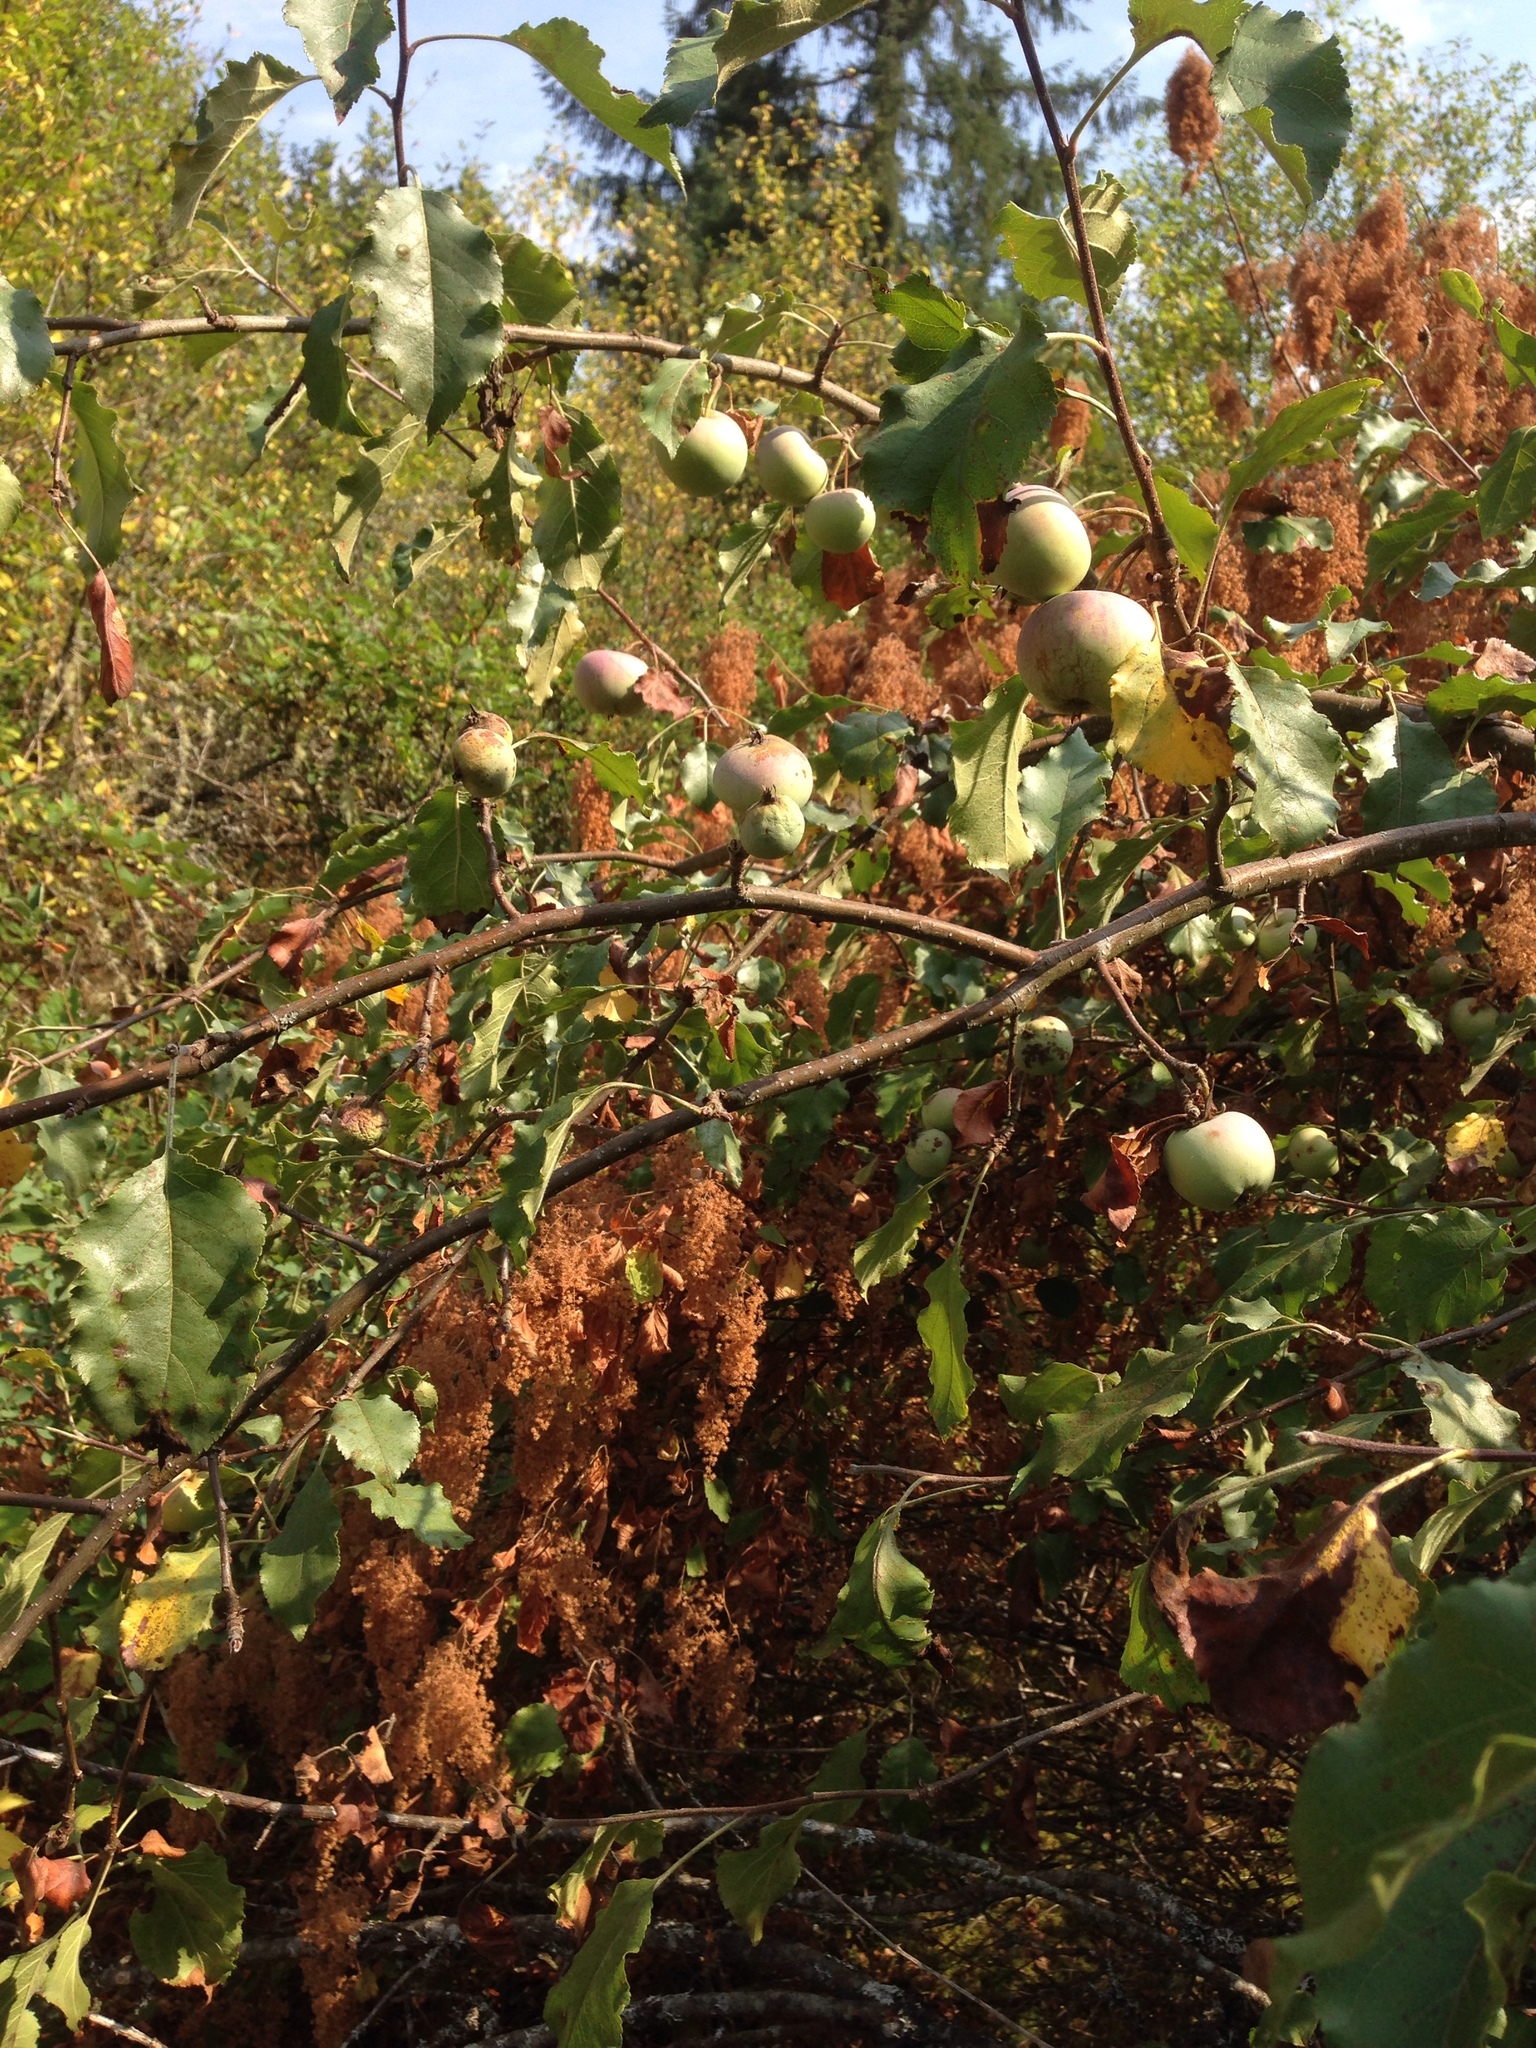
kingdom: Plantae
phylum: Tracheophyta
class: Magnoliopsida
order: Rosales
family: Rosaceae
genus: Malus
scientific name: Malus domestica
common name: Apple
